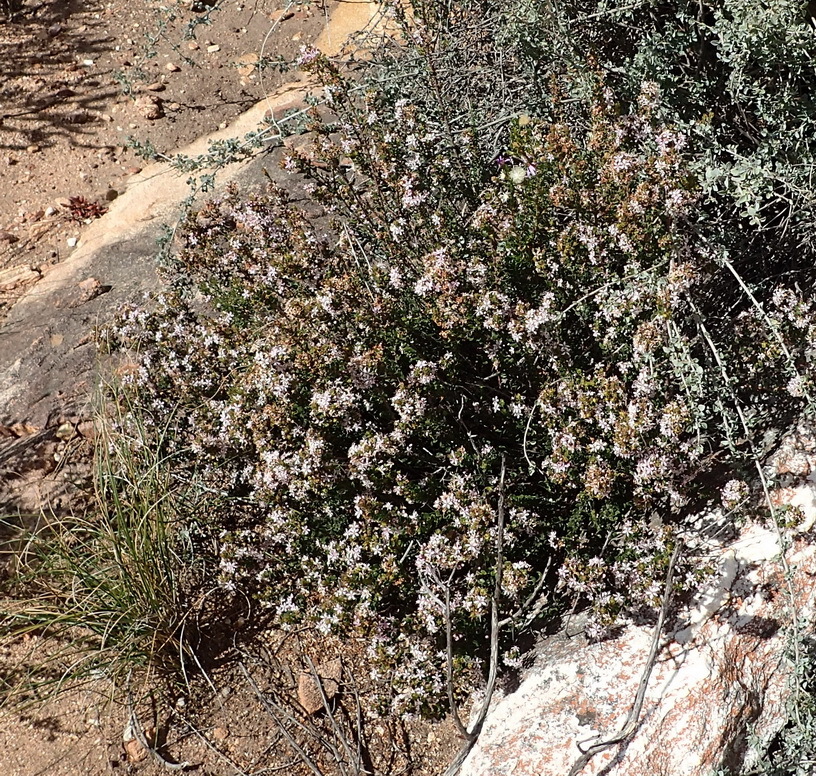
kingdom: Plantae
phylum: Tracheophyta
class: Magnoliopsida
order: Sapindales
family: Rutaceae
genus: Agathosma
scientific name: Agathosma ovata
